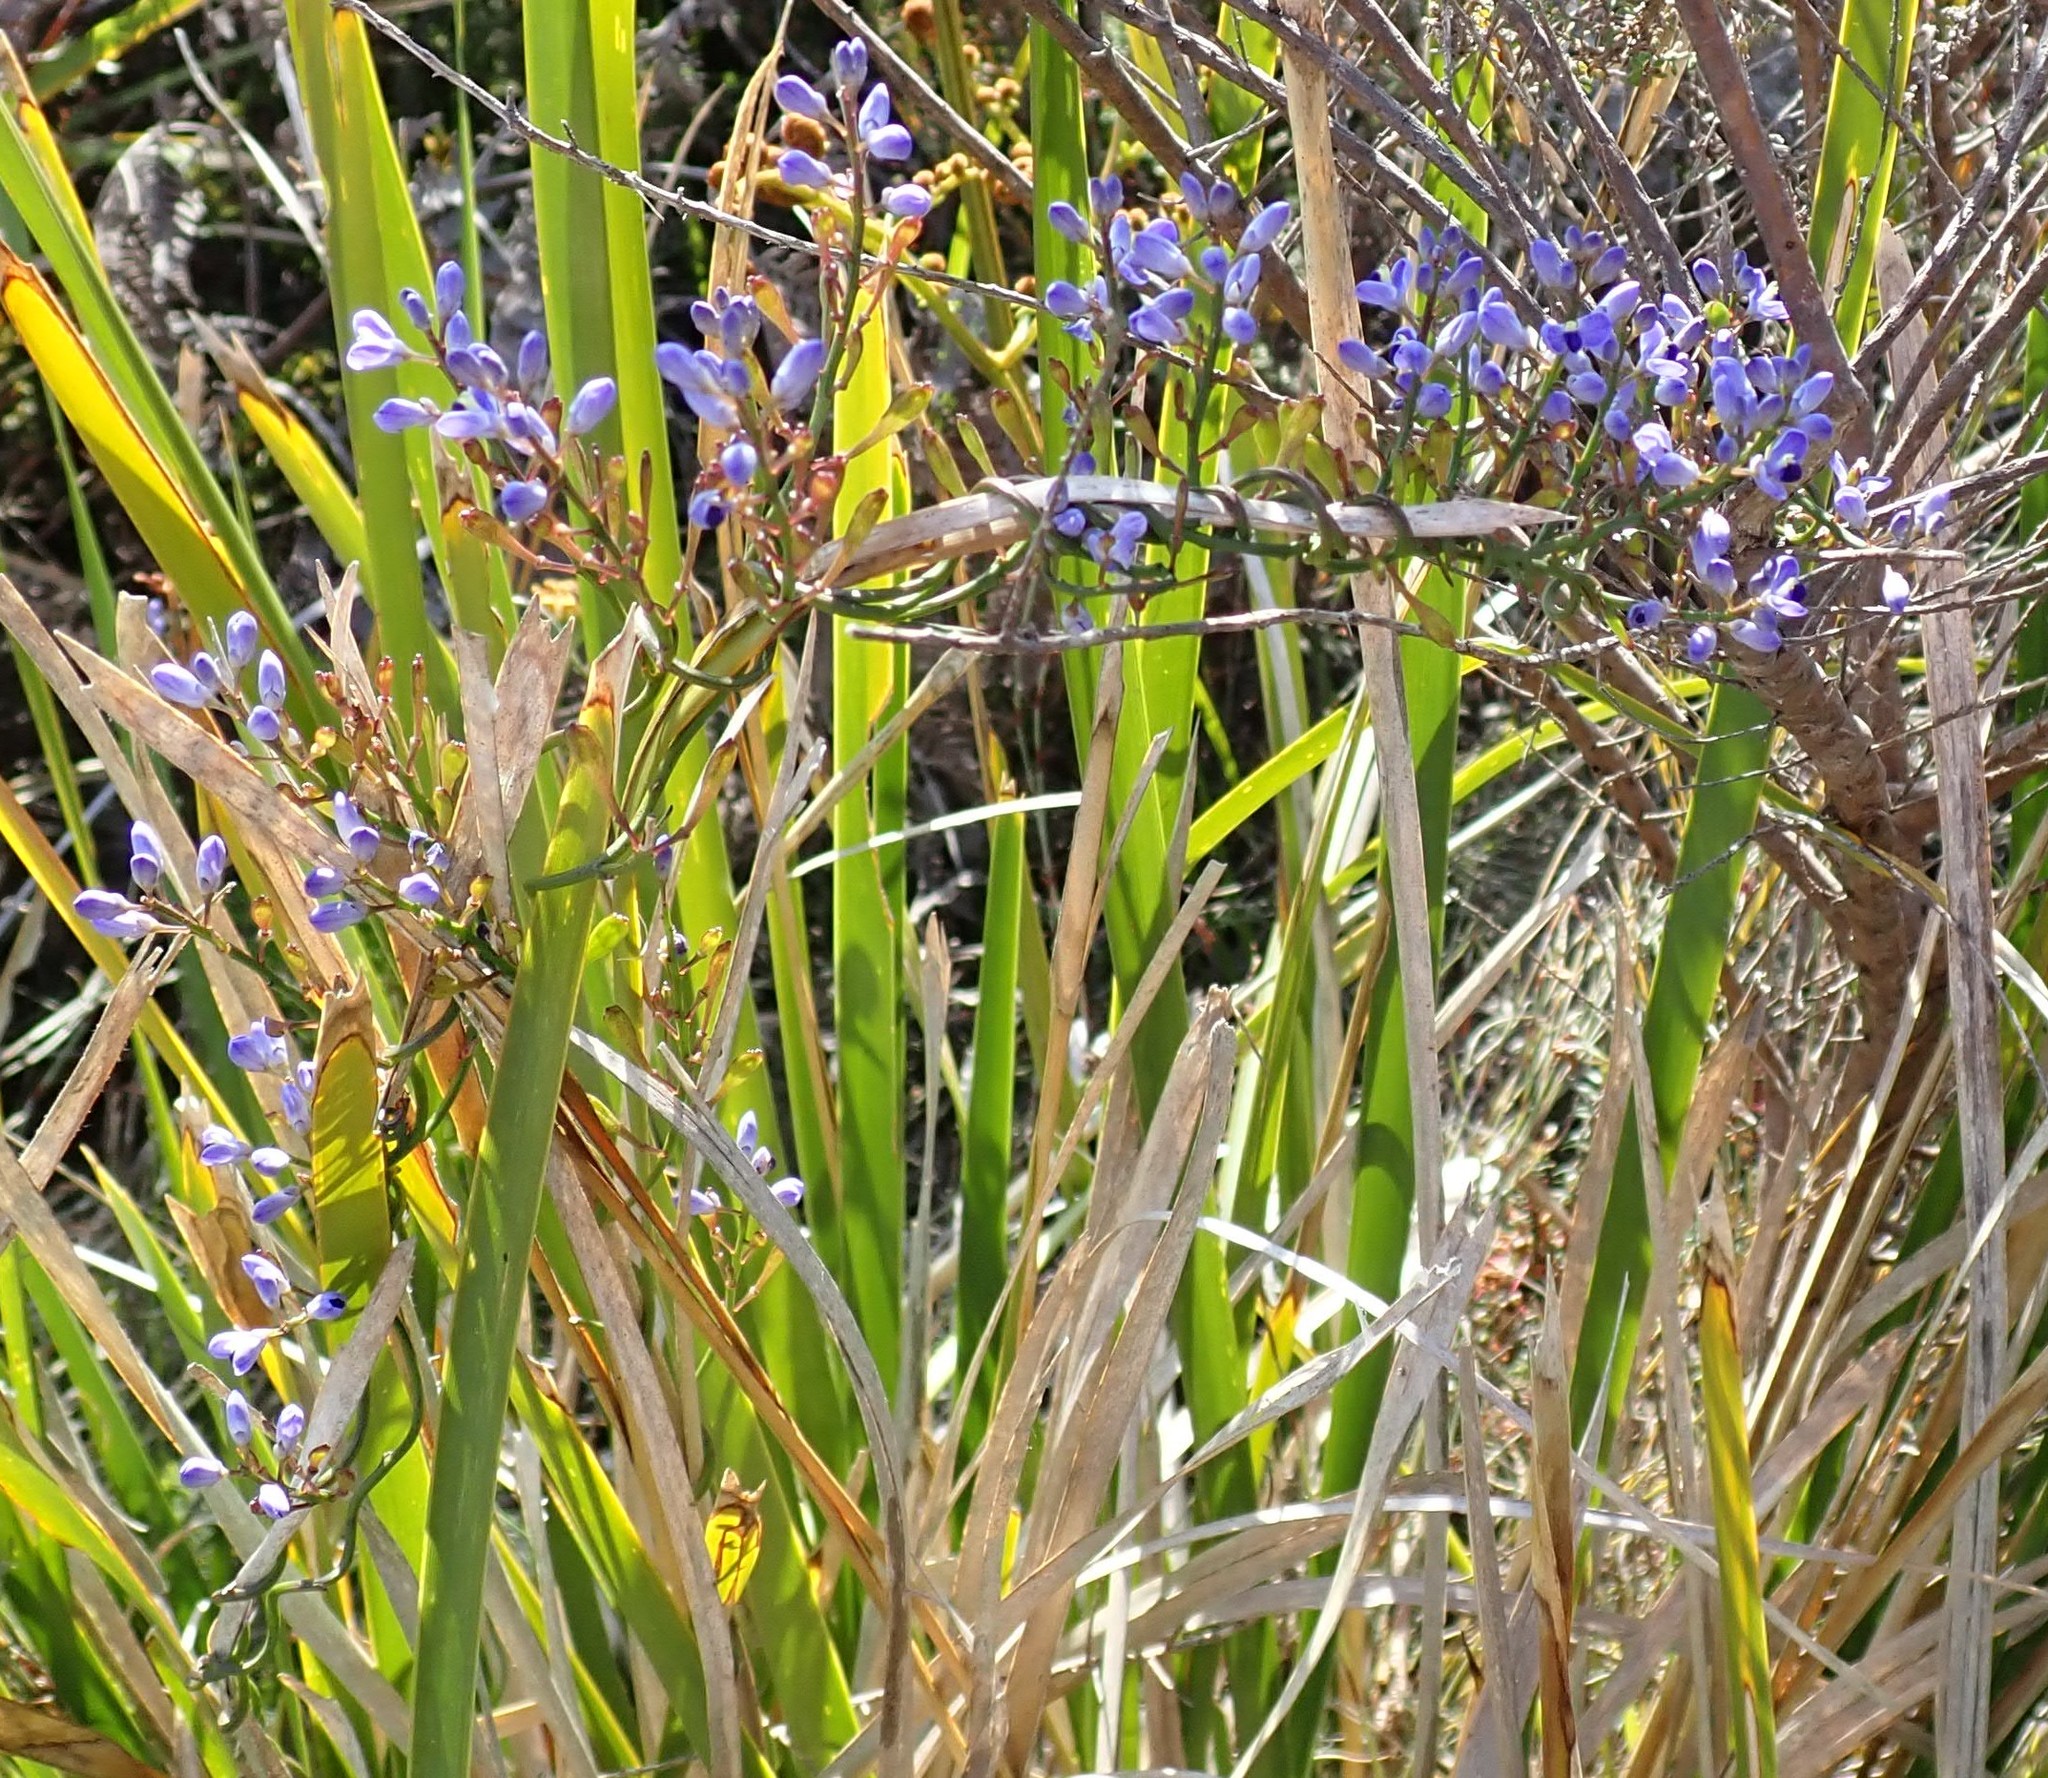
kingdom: Plantae
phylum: Tracheophyta
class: Magnoliopsida
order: Fabales
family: Polygalaceae
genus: Comesperma
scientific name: Comesperma volubile
